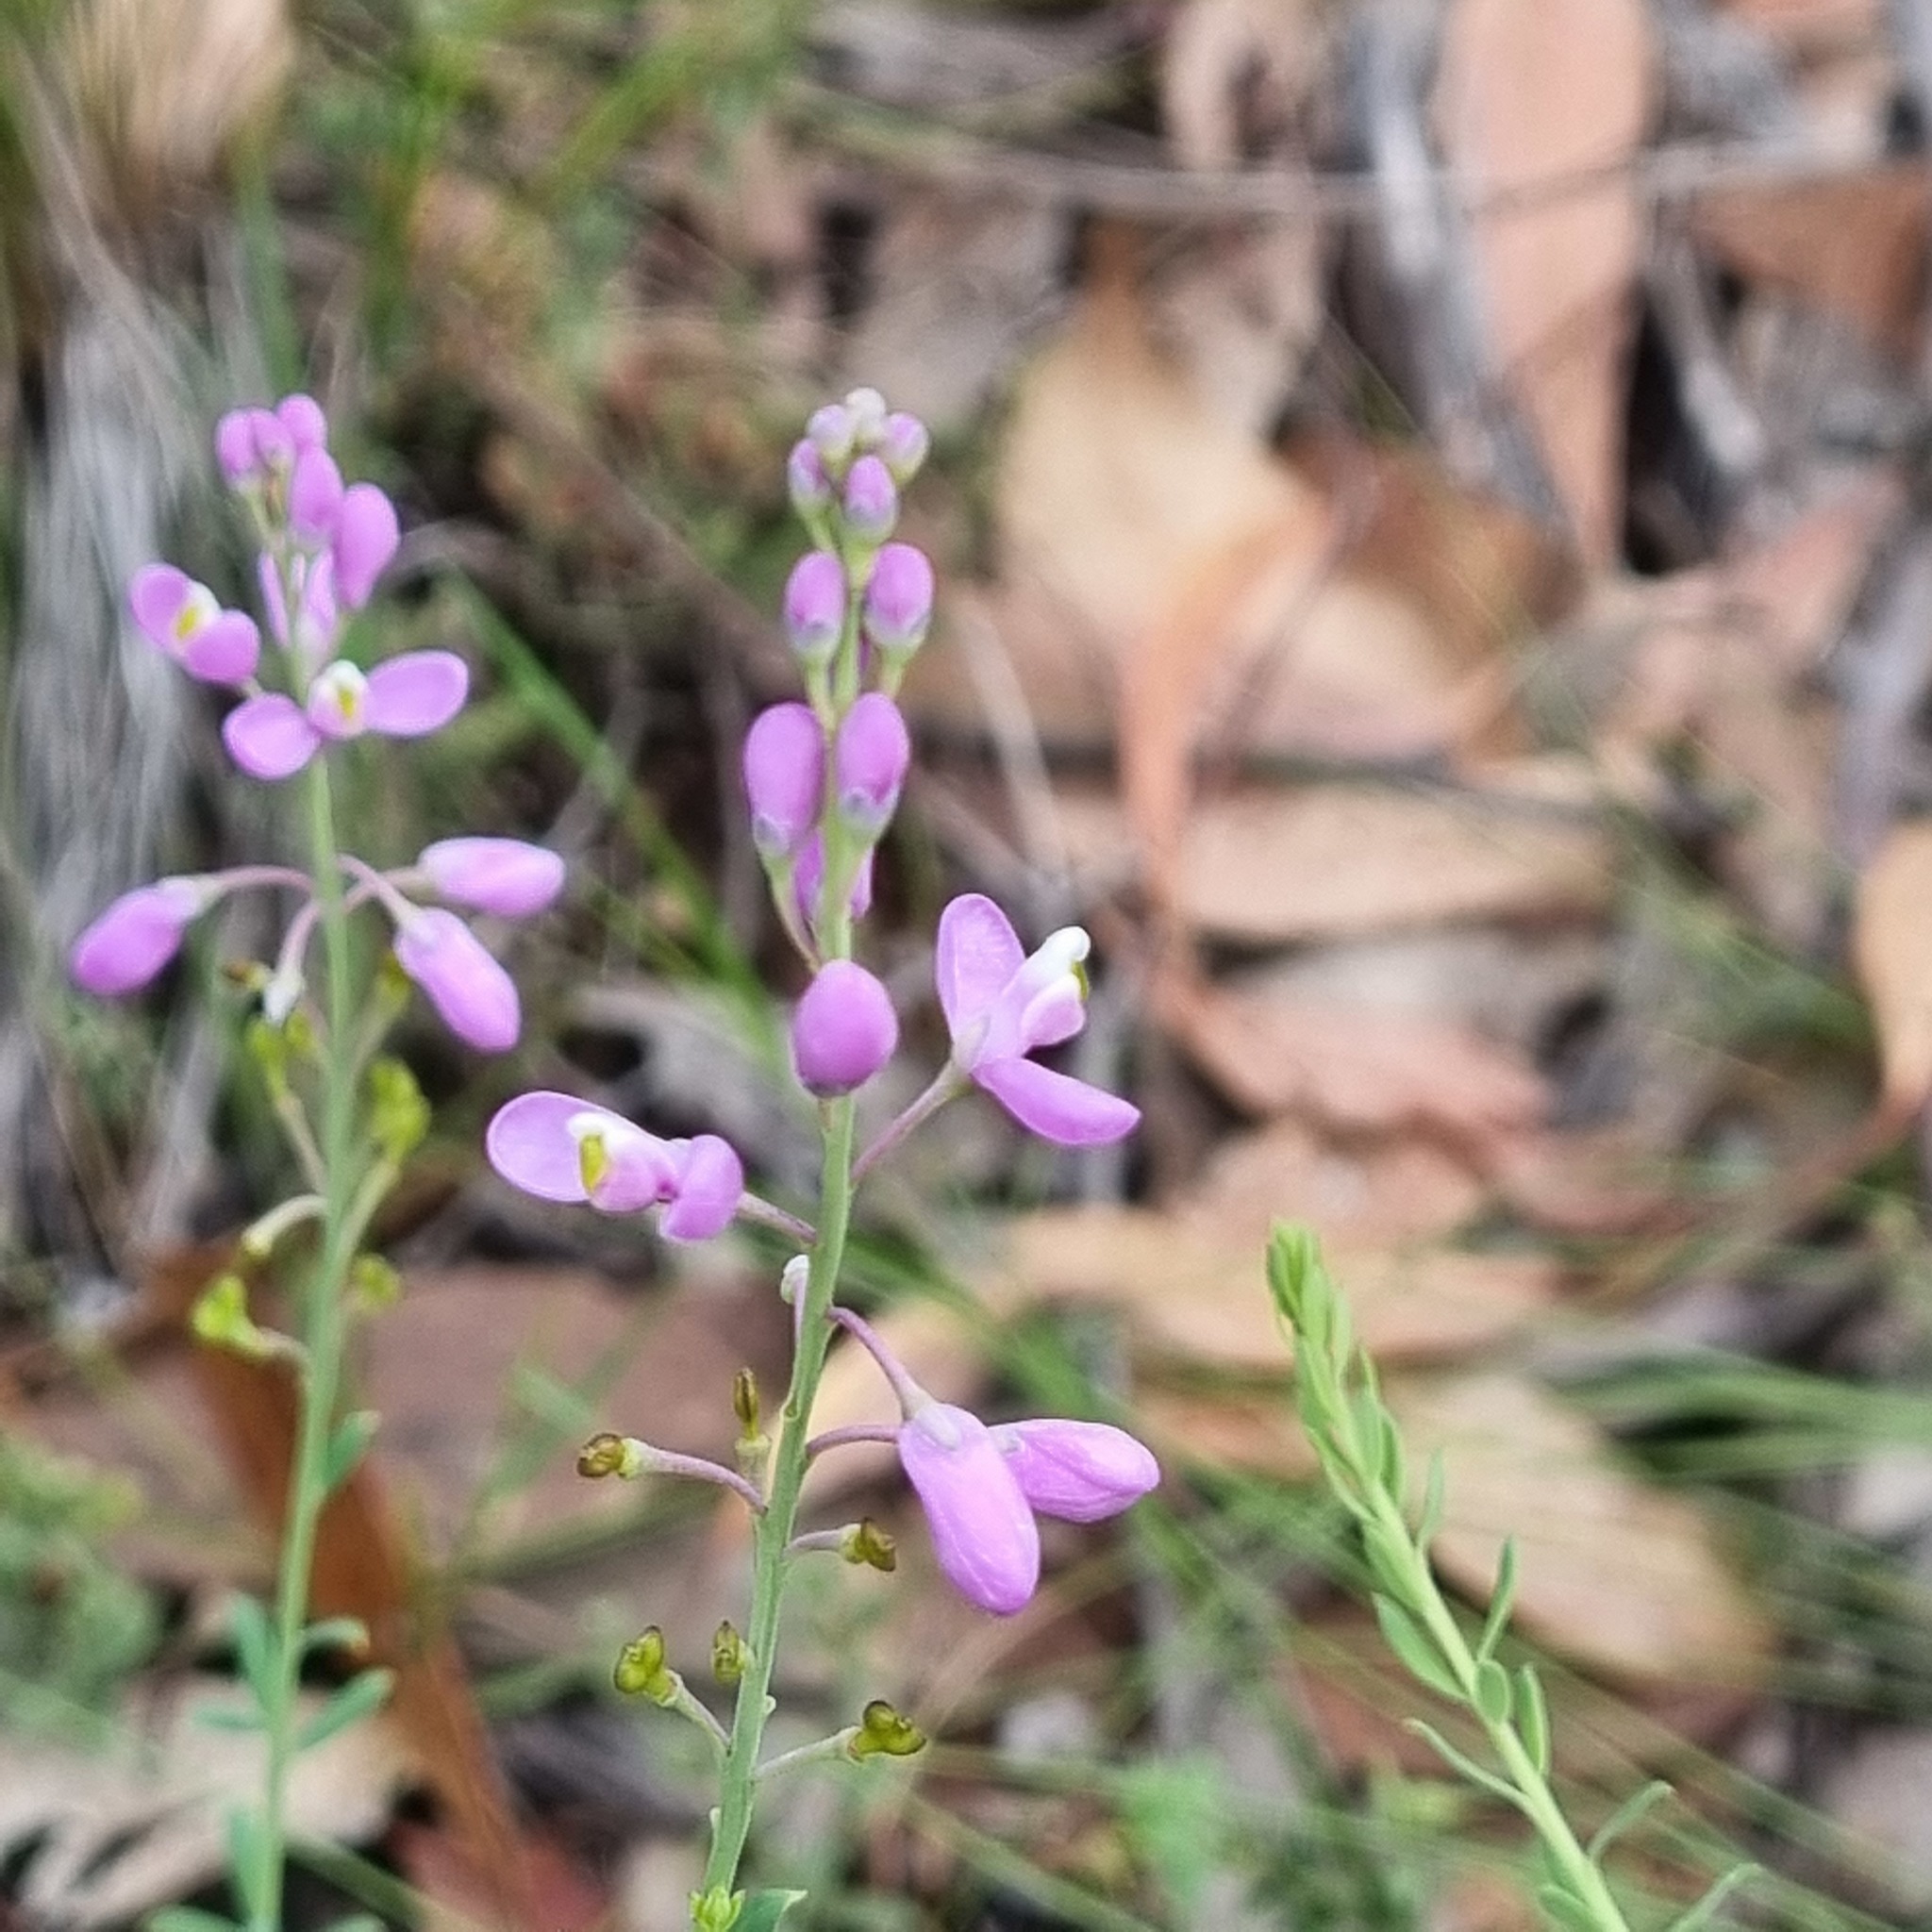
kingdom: Plantae
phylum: Tracheophyta
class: Magnoliopsida
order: Fabales
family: Polygalaceae
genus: Comesperma
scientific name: Comesperma retusum
